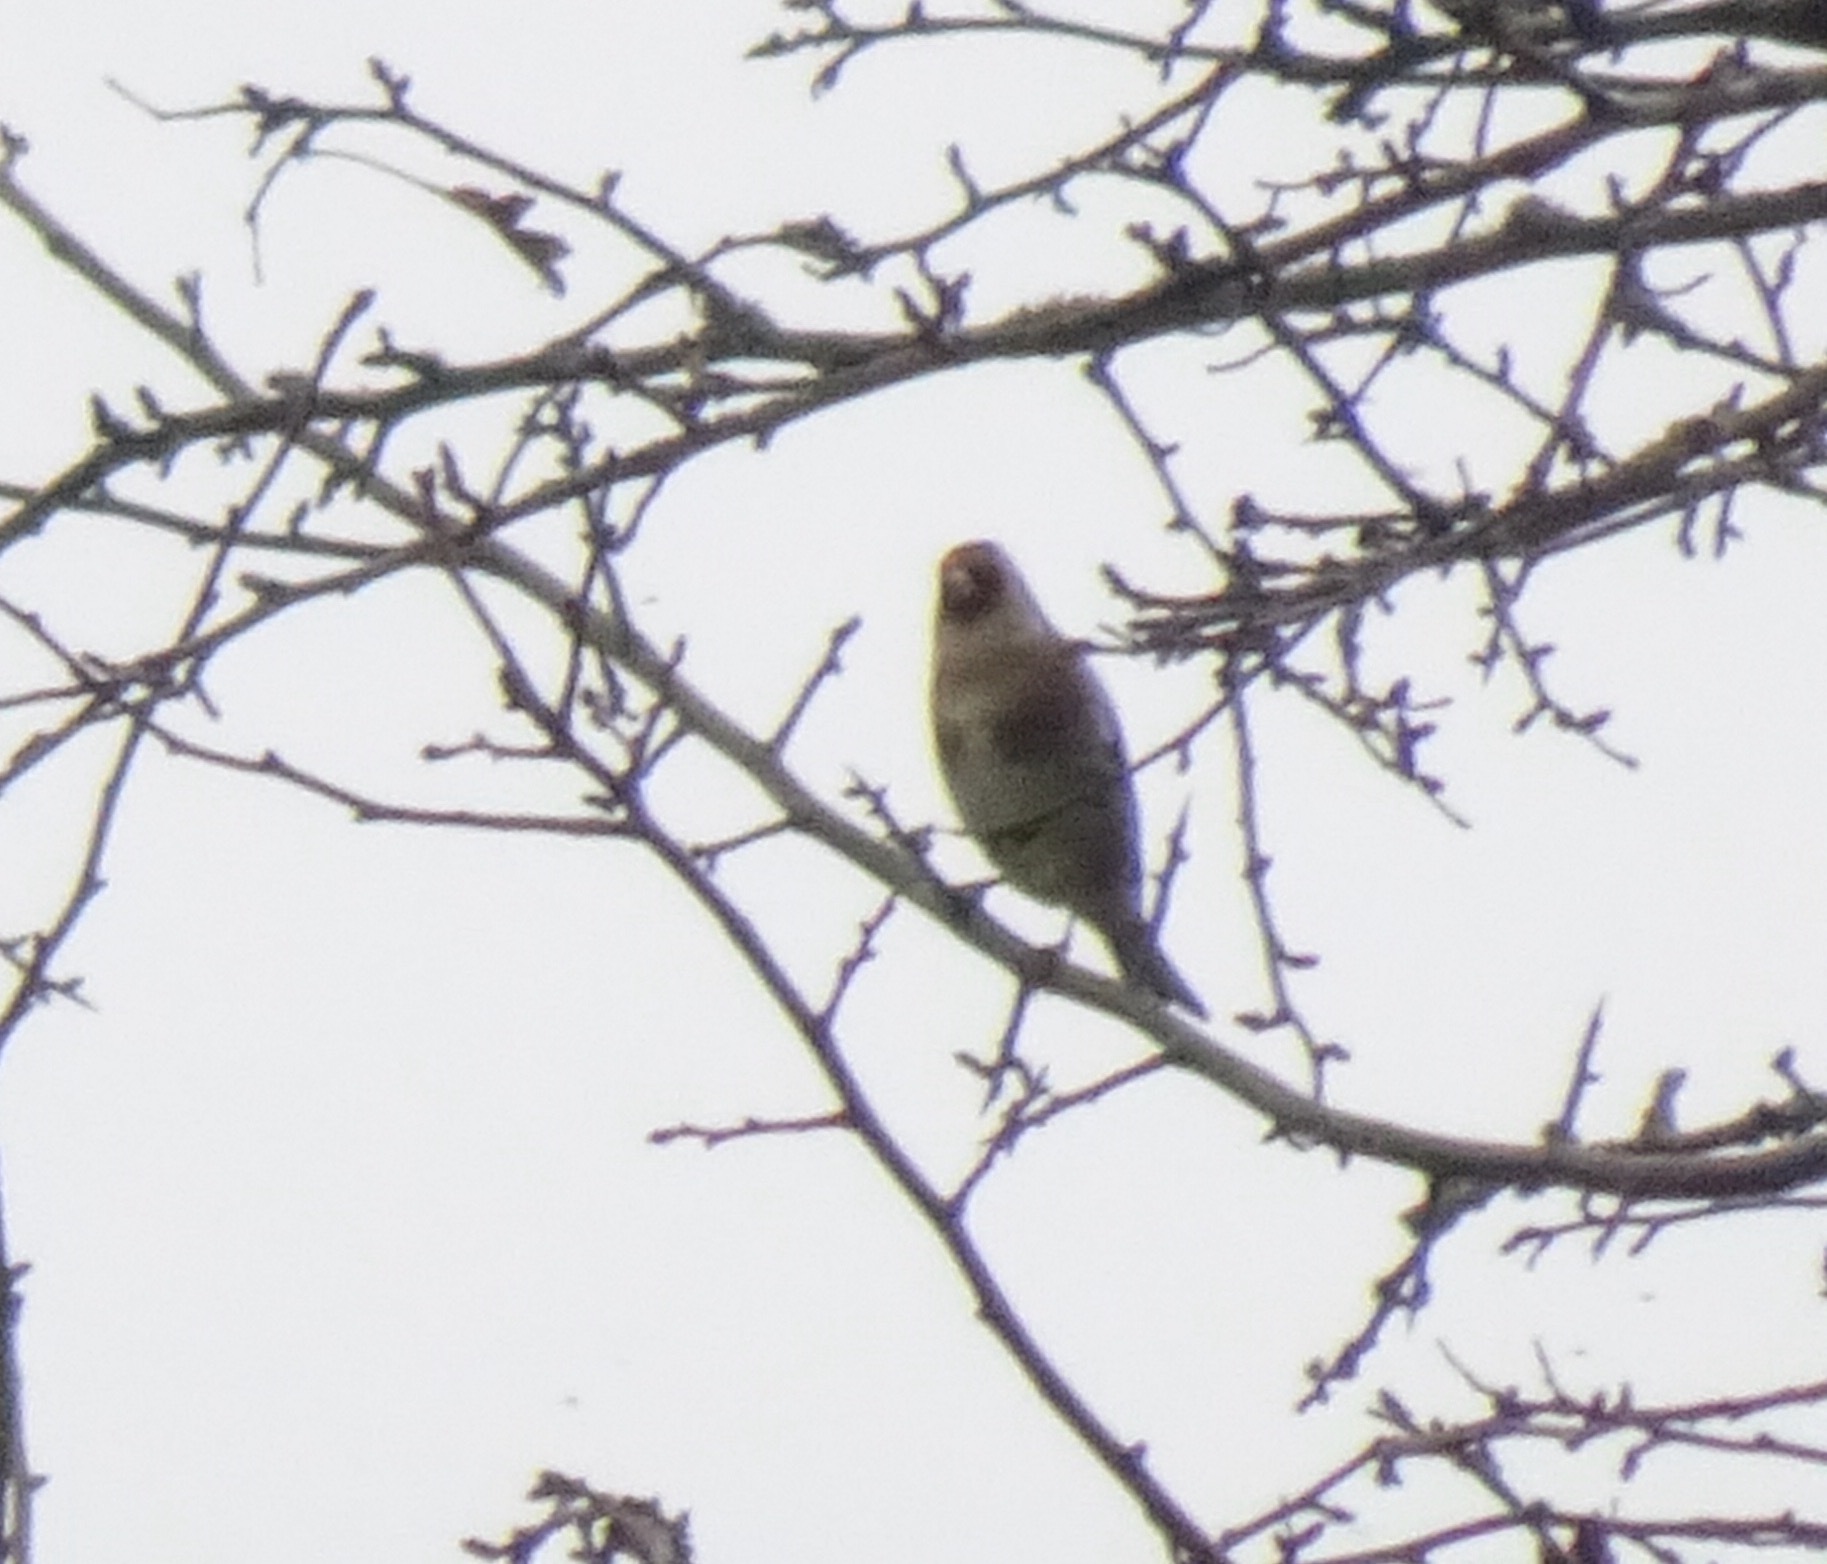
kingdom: Animalia
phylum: Chordata
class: Aves
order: Passeriformes
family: Fringillidae
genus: Carduelis
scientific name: Carduelis carduelis
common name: European goldfinch
